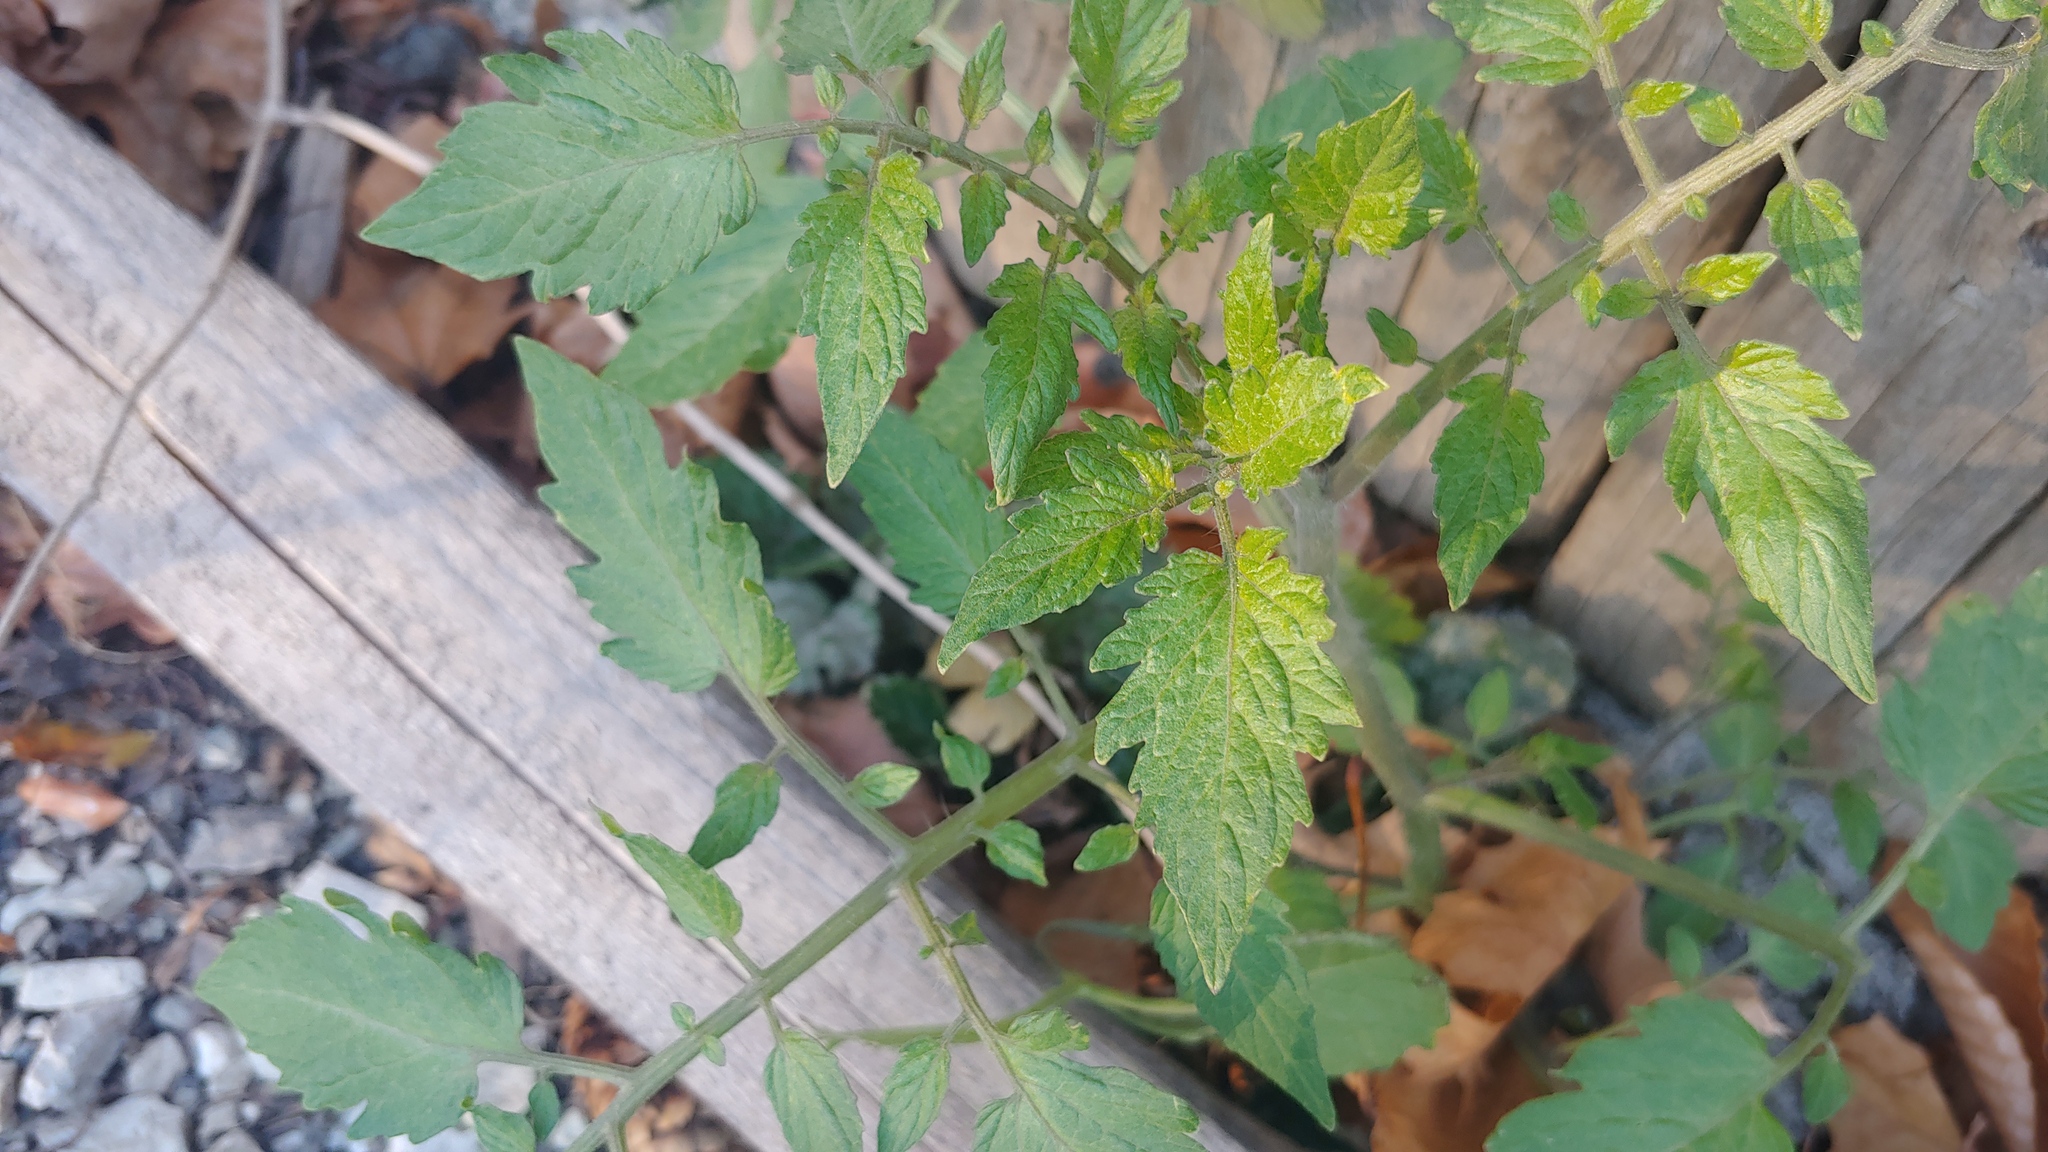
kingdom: Plantae
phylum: Tracheophyta
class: Magnoliopsida
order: Solanales
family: Solanaceae
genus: Solanum
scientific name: Solanum lycopersicum
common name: Garden tomato
